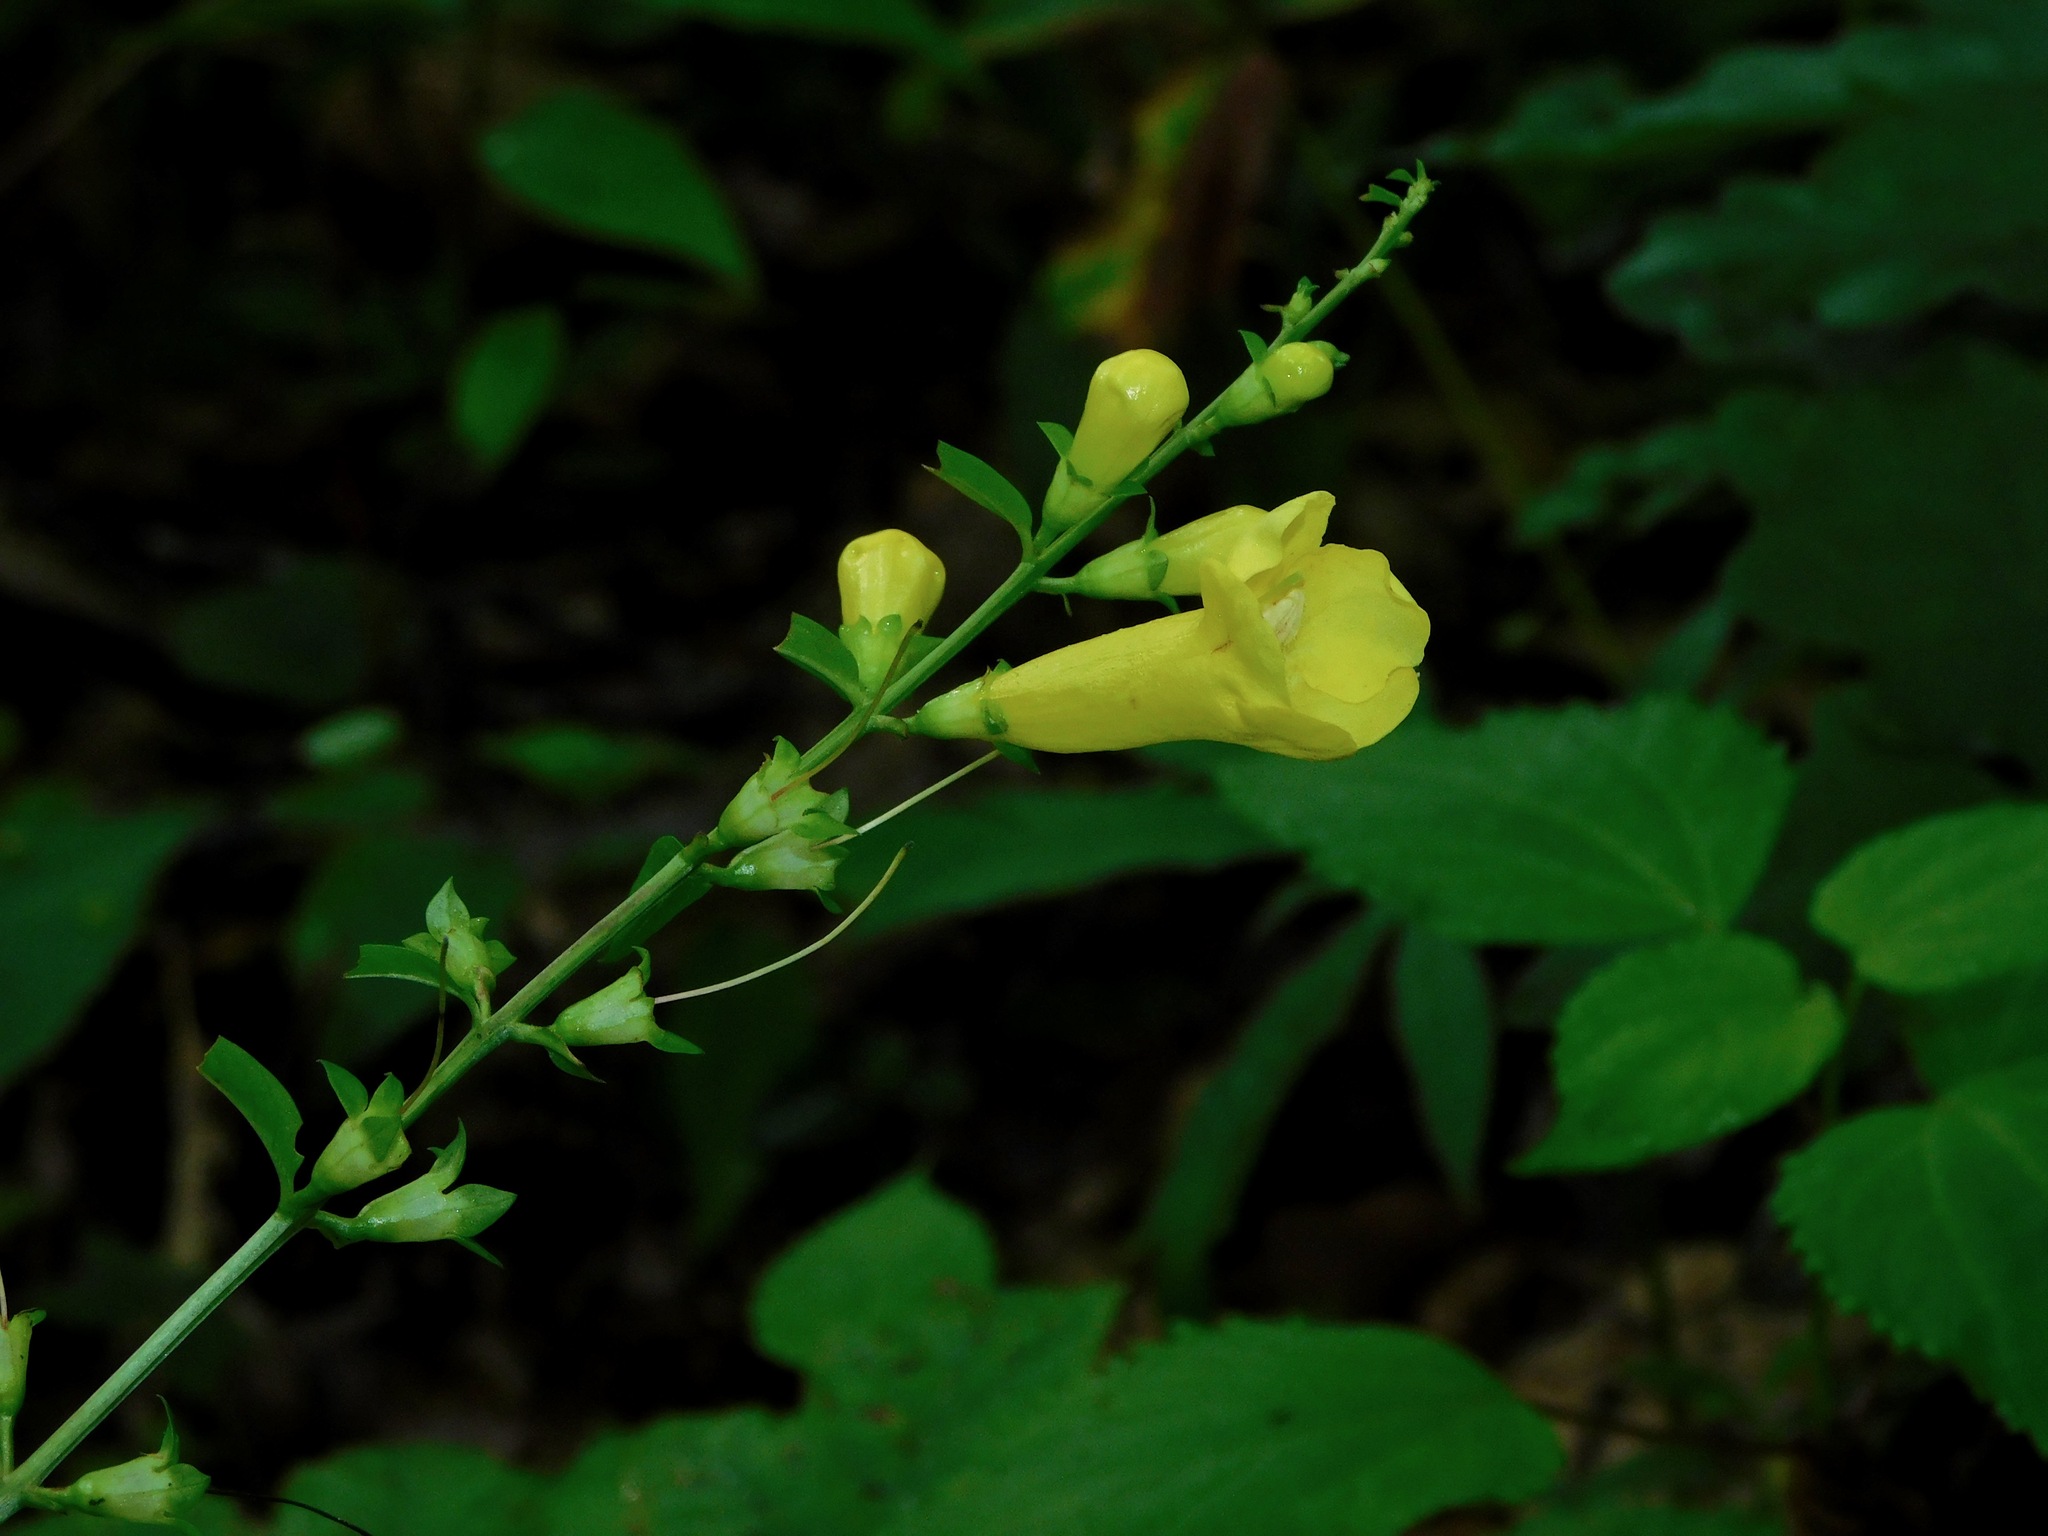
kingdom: Plantae
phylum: Tracheophyta
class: Magnoliopsida
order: Lamiales
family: Orobanchaceae
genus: Aureolaria
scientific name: Aureolaria levigata
